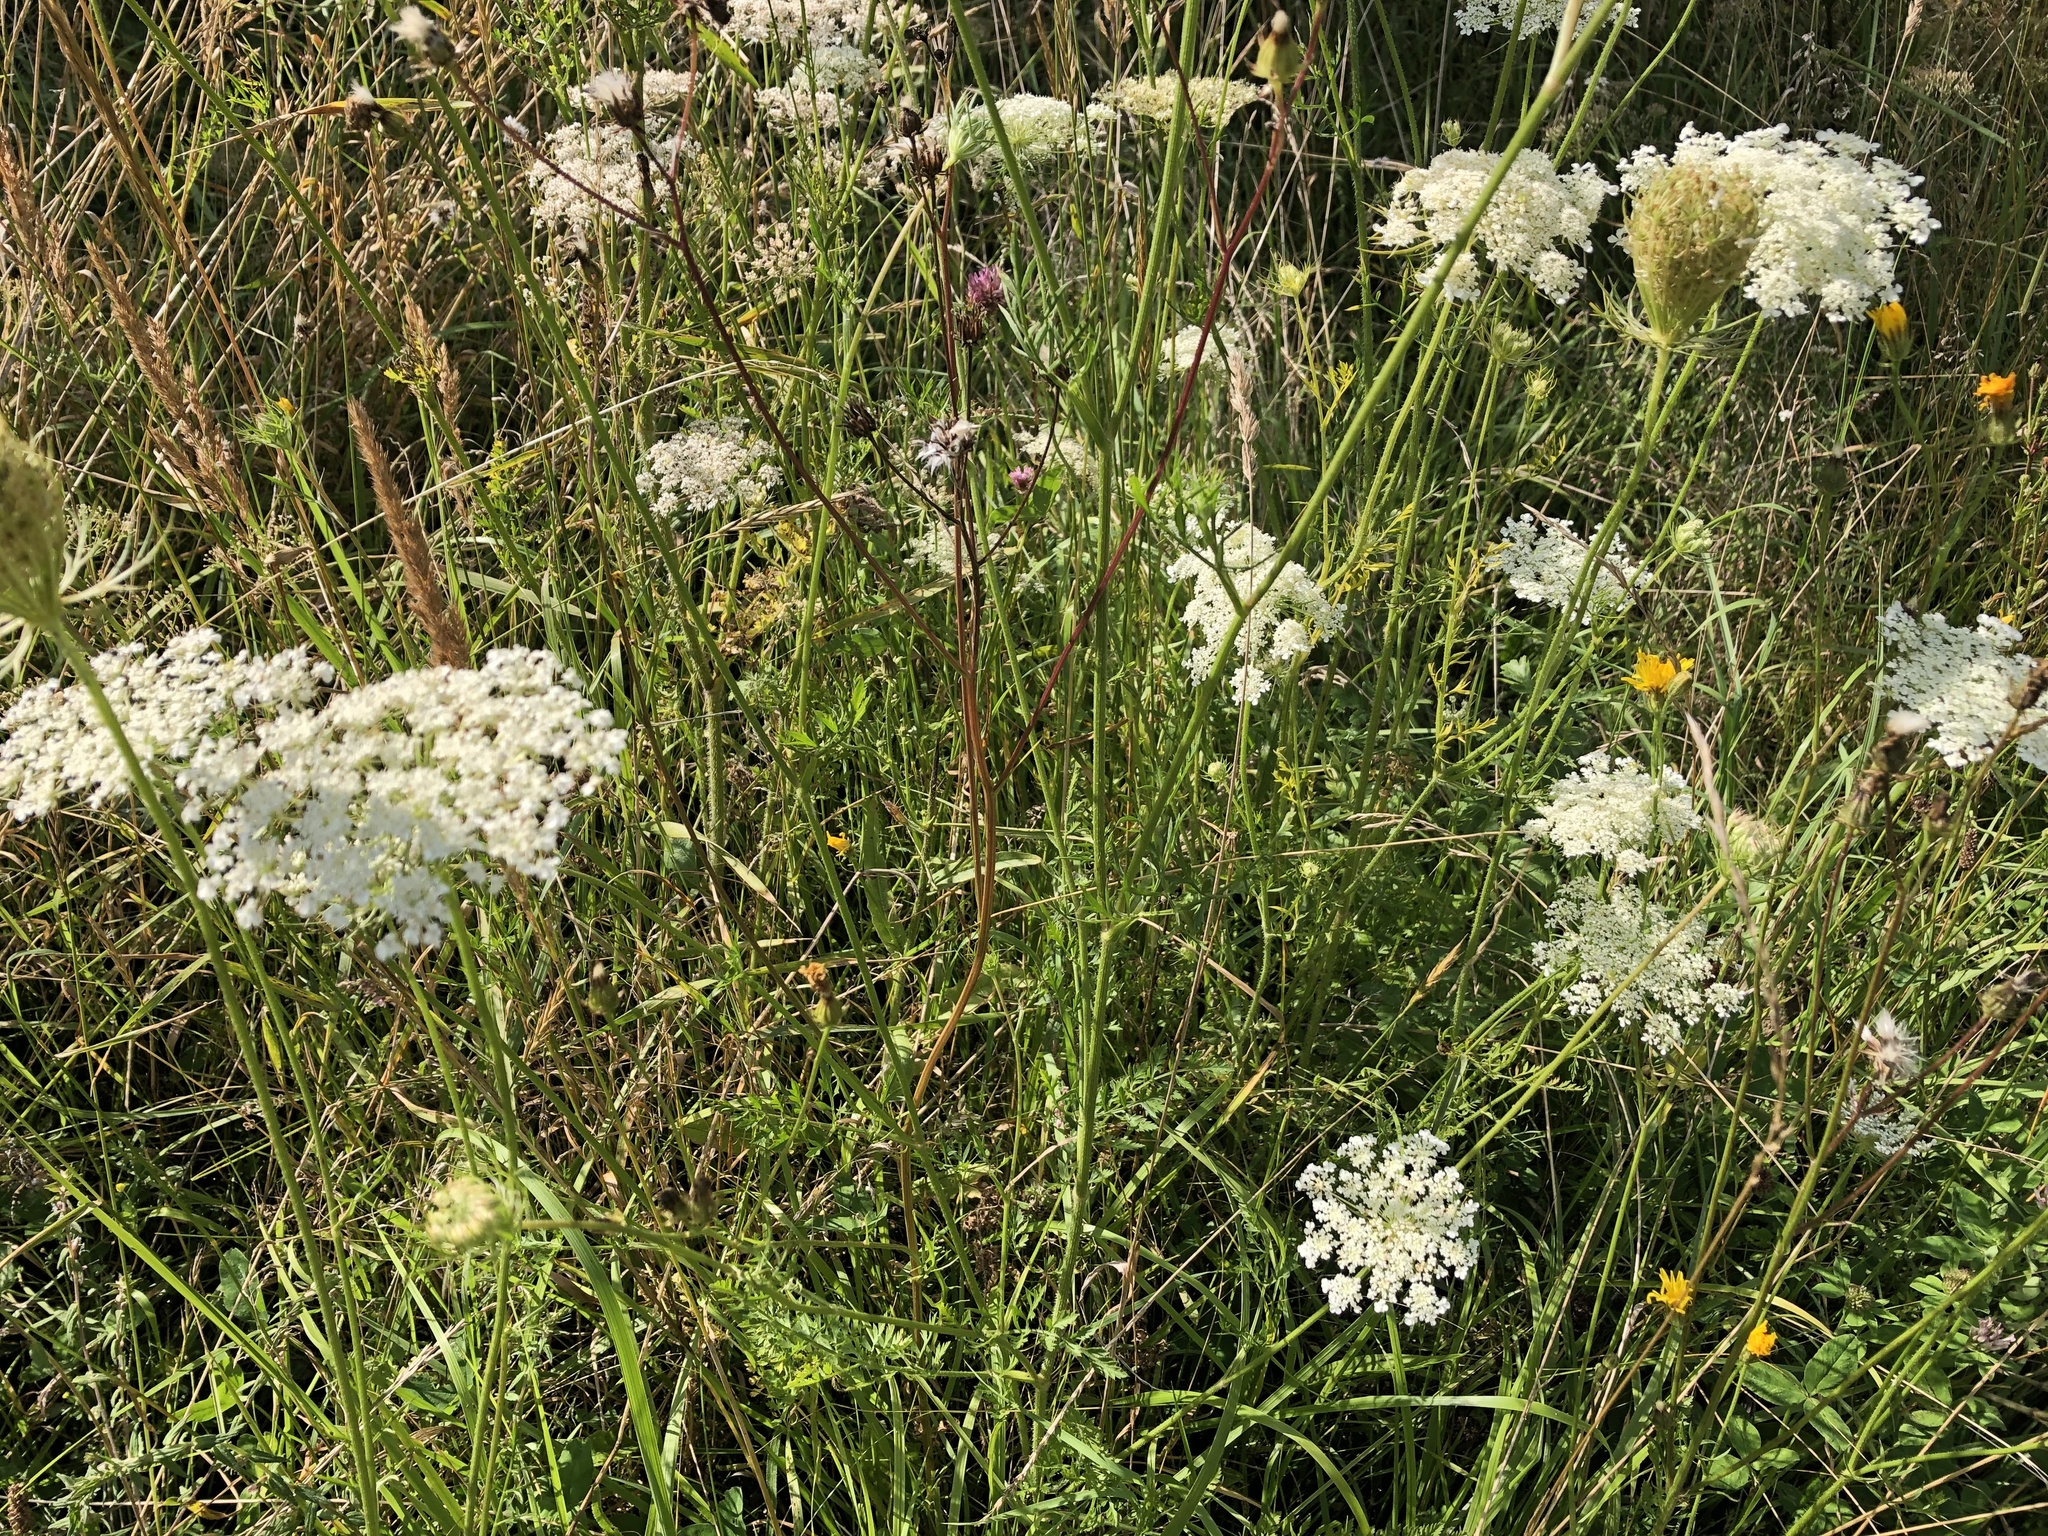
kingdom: Plantae
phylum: Tracheophyta
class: Magnoliopsida
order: Apiales
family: Apiaceae
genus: Daucus
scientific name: Daucus carota
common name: Wild carrot
